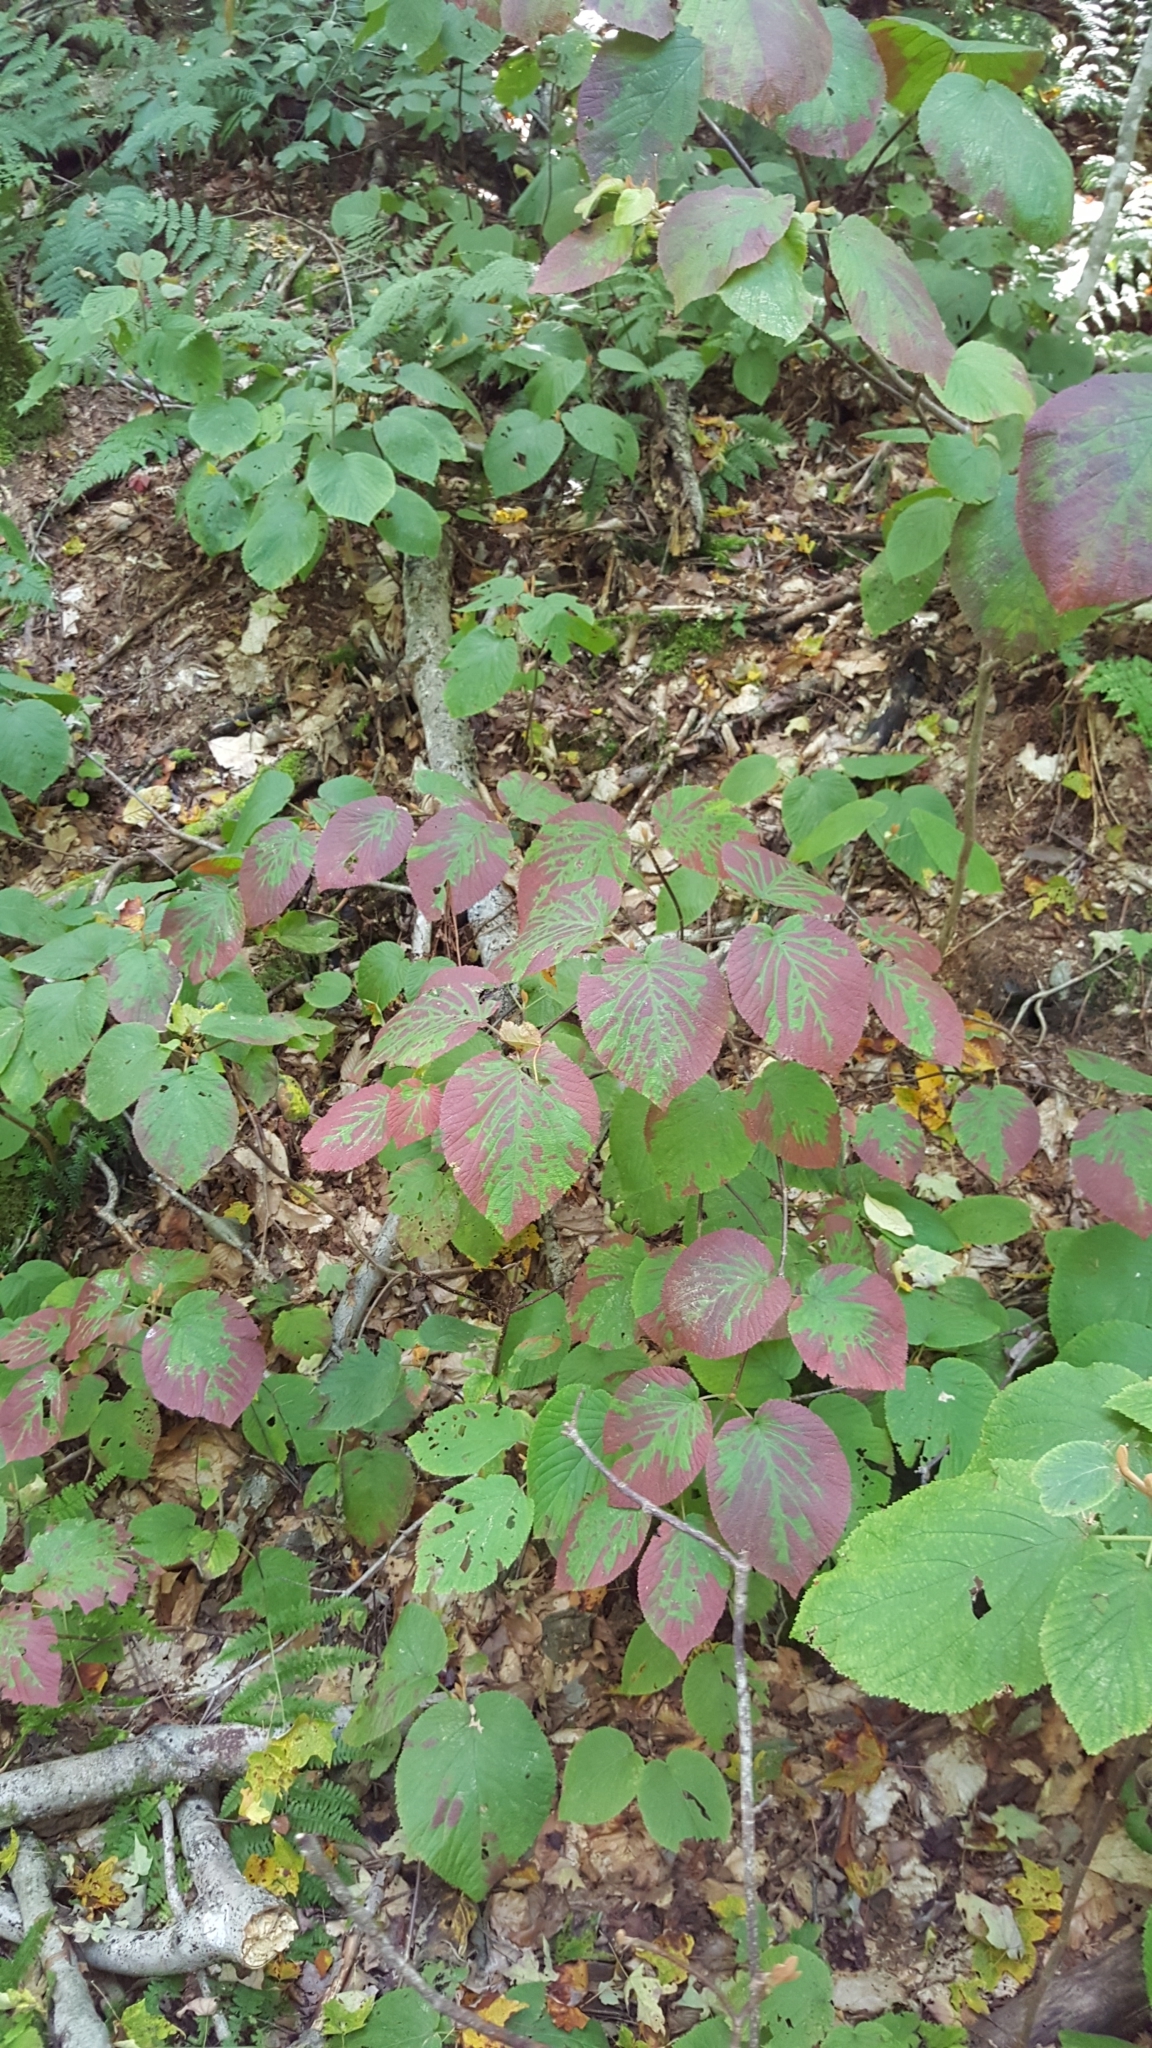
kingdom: Plantae
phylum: Tracheophyta
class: Magnoliopsida
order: Dipsacales
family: Viburnaceae
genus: Viburnum
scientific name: Viburnum lantanoides
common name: Hobblebush
